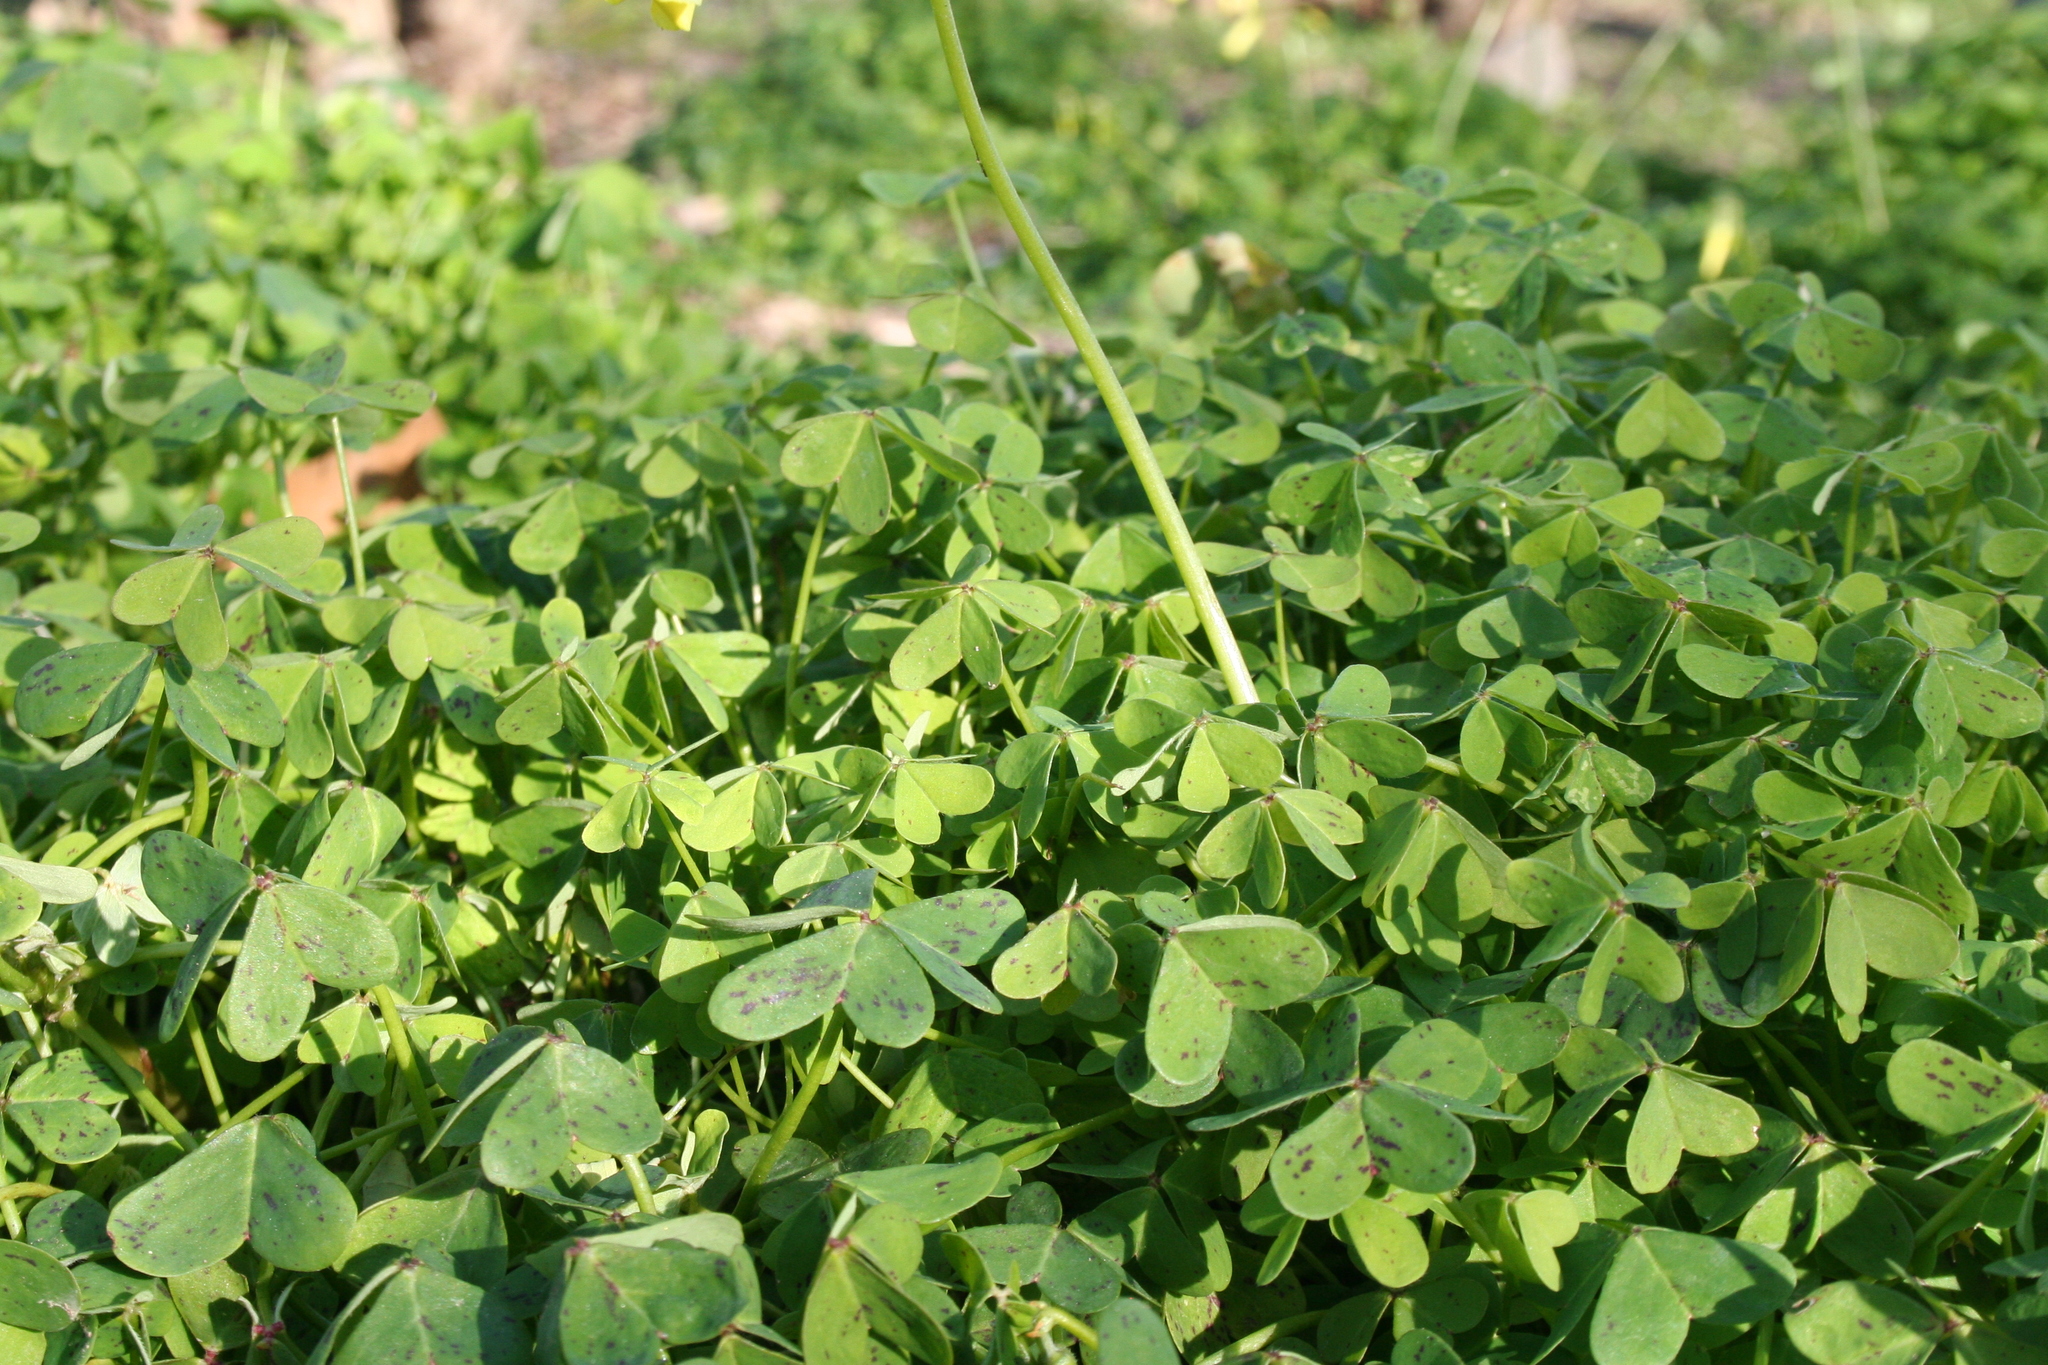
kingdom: Plantae
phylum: Tracheophyta
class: Magnoliopsida
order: Oxalidales
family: Oxalidaceae
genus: Oxalis
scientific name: Oxalis pes-caprae
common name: Bermuda-buttercup
